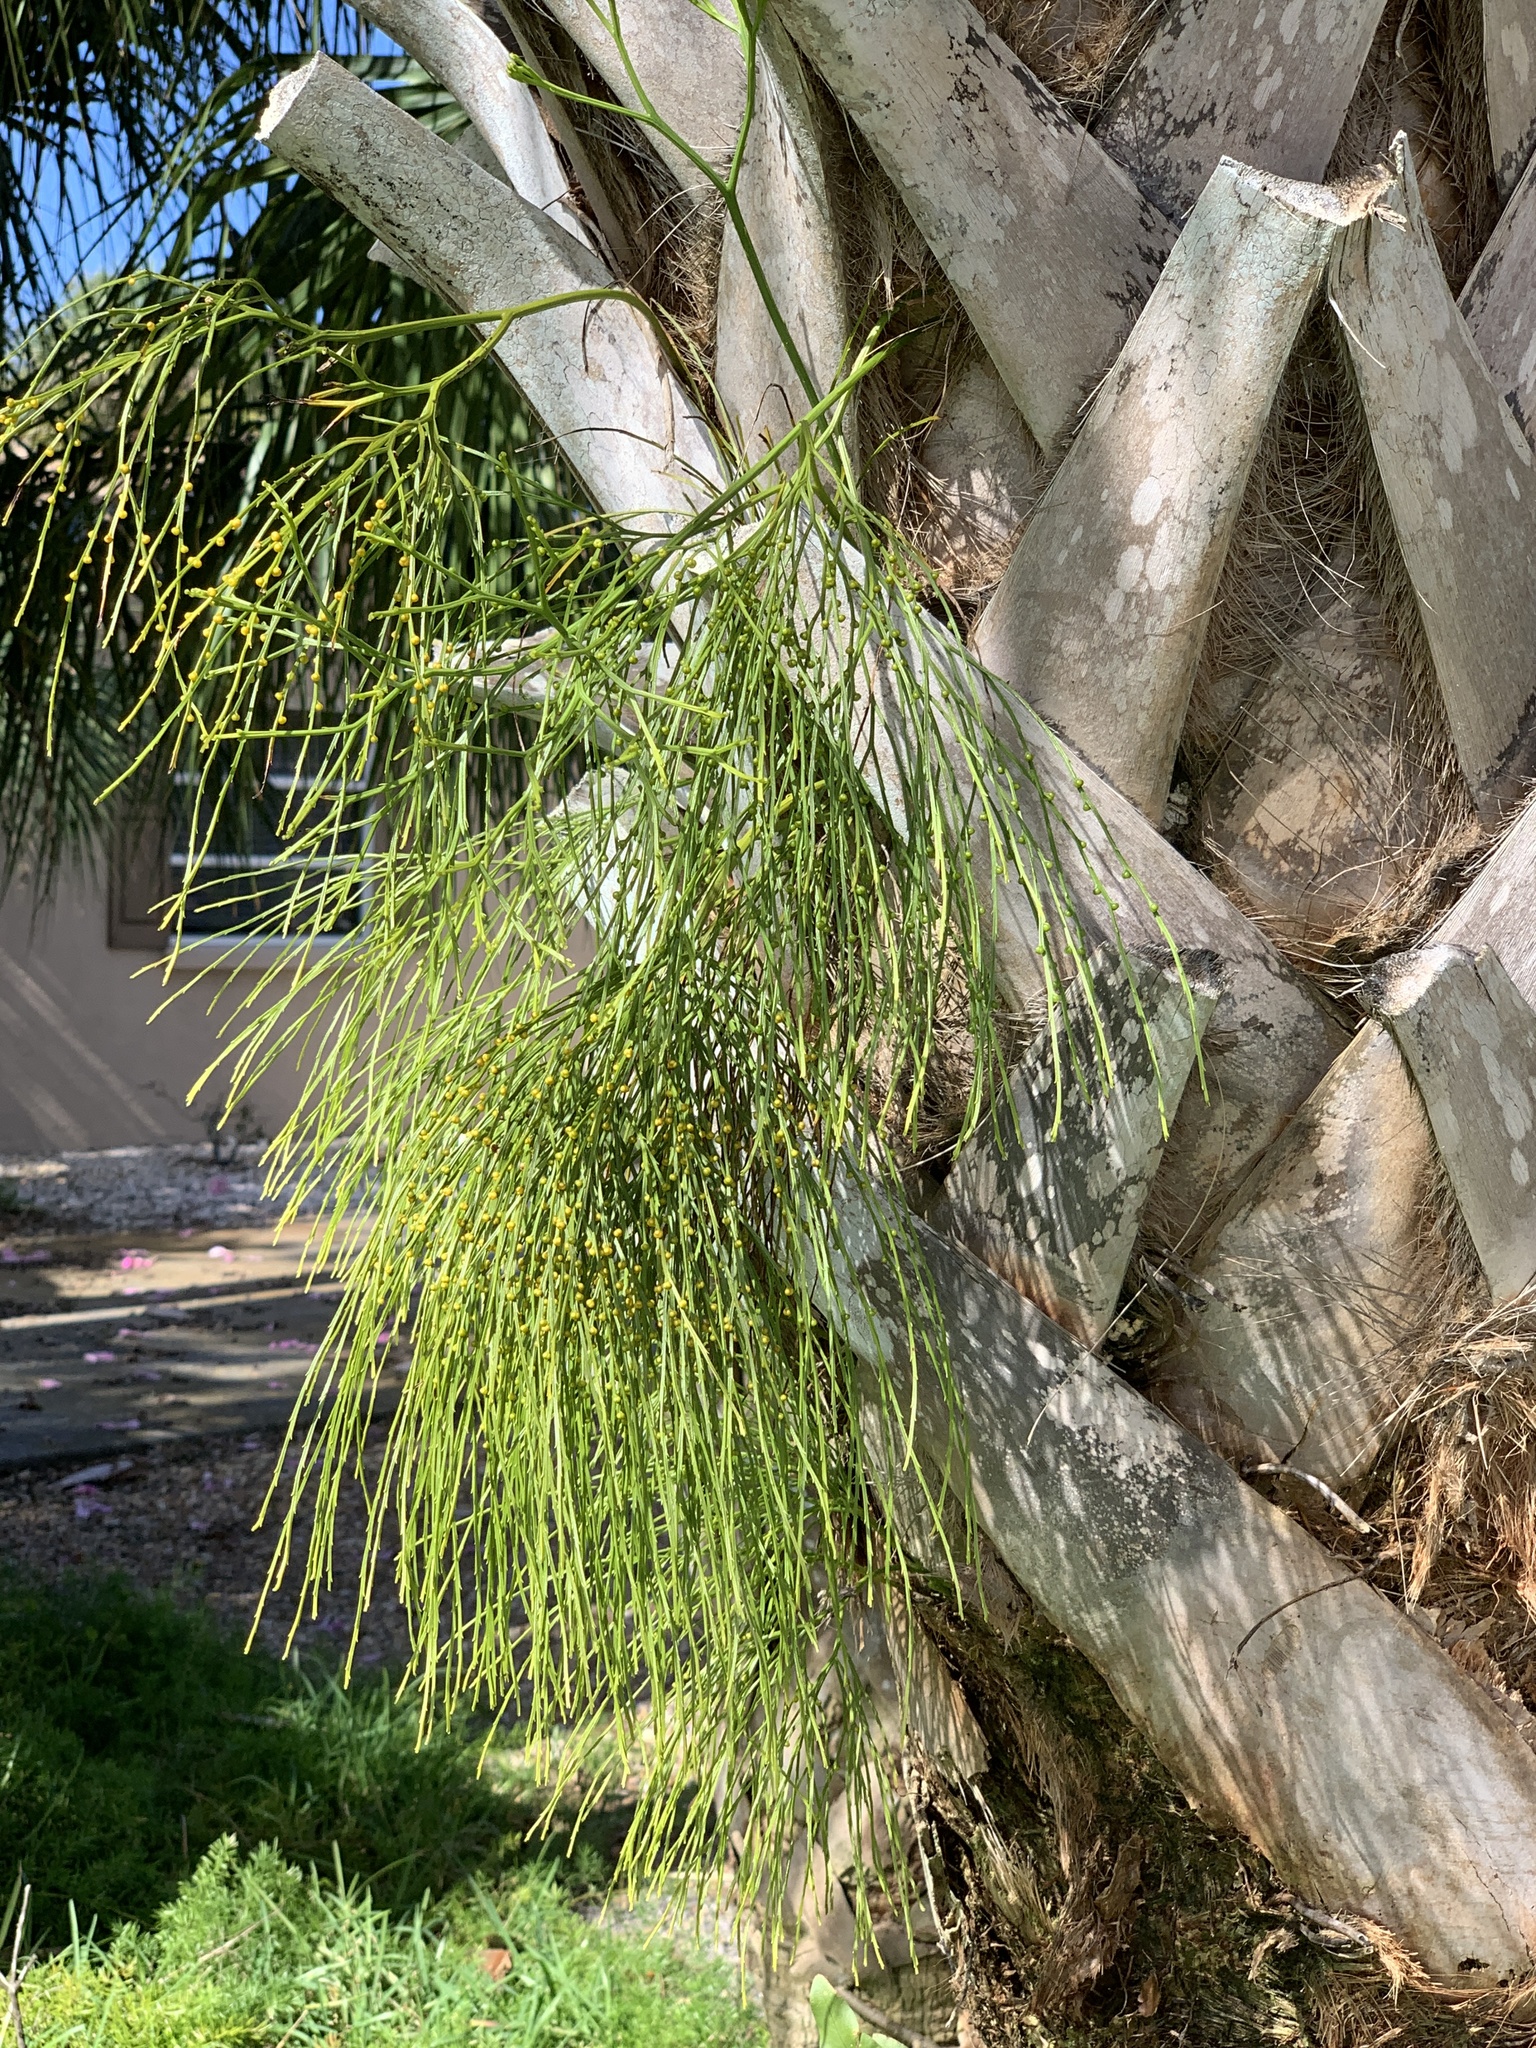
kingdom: Plantae
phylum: Tracheophyta
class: Polypodiopsida
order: Psilotales
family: Psilotaceae
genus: Psilotum
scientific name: Psilotum nudum
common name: Skeleton fork fern
